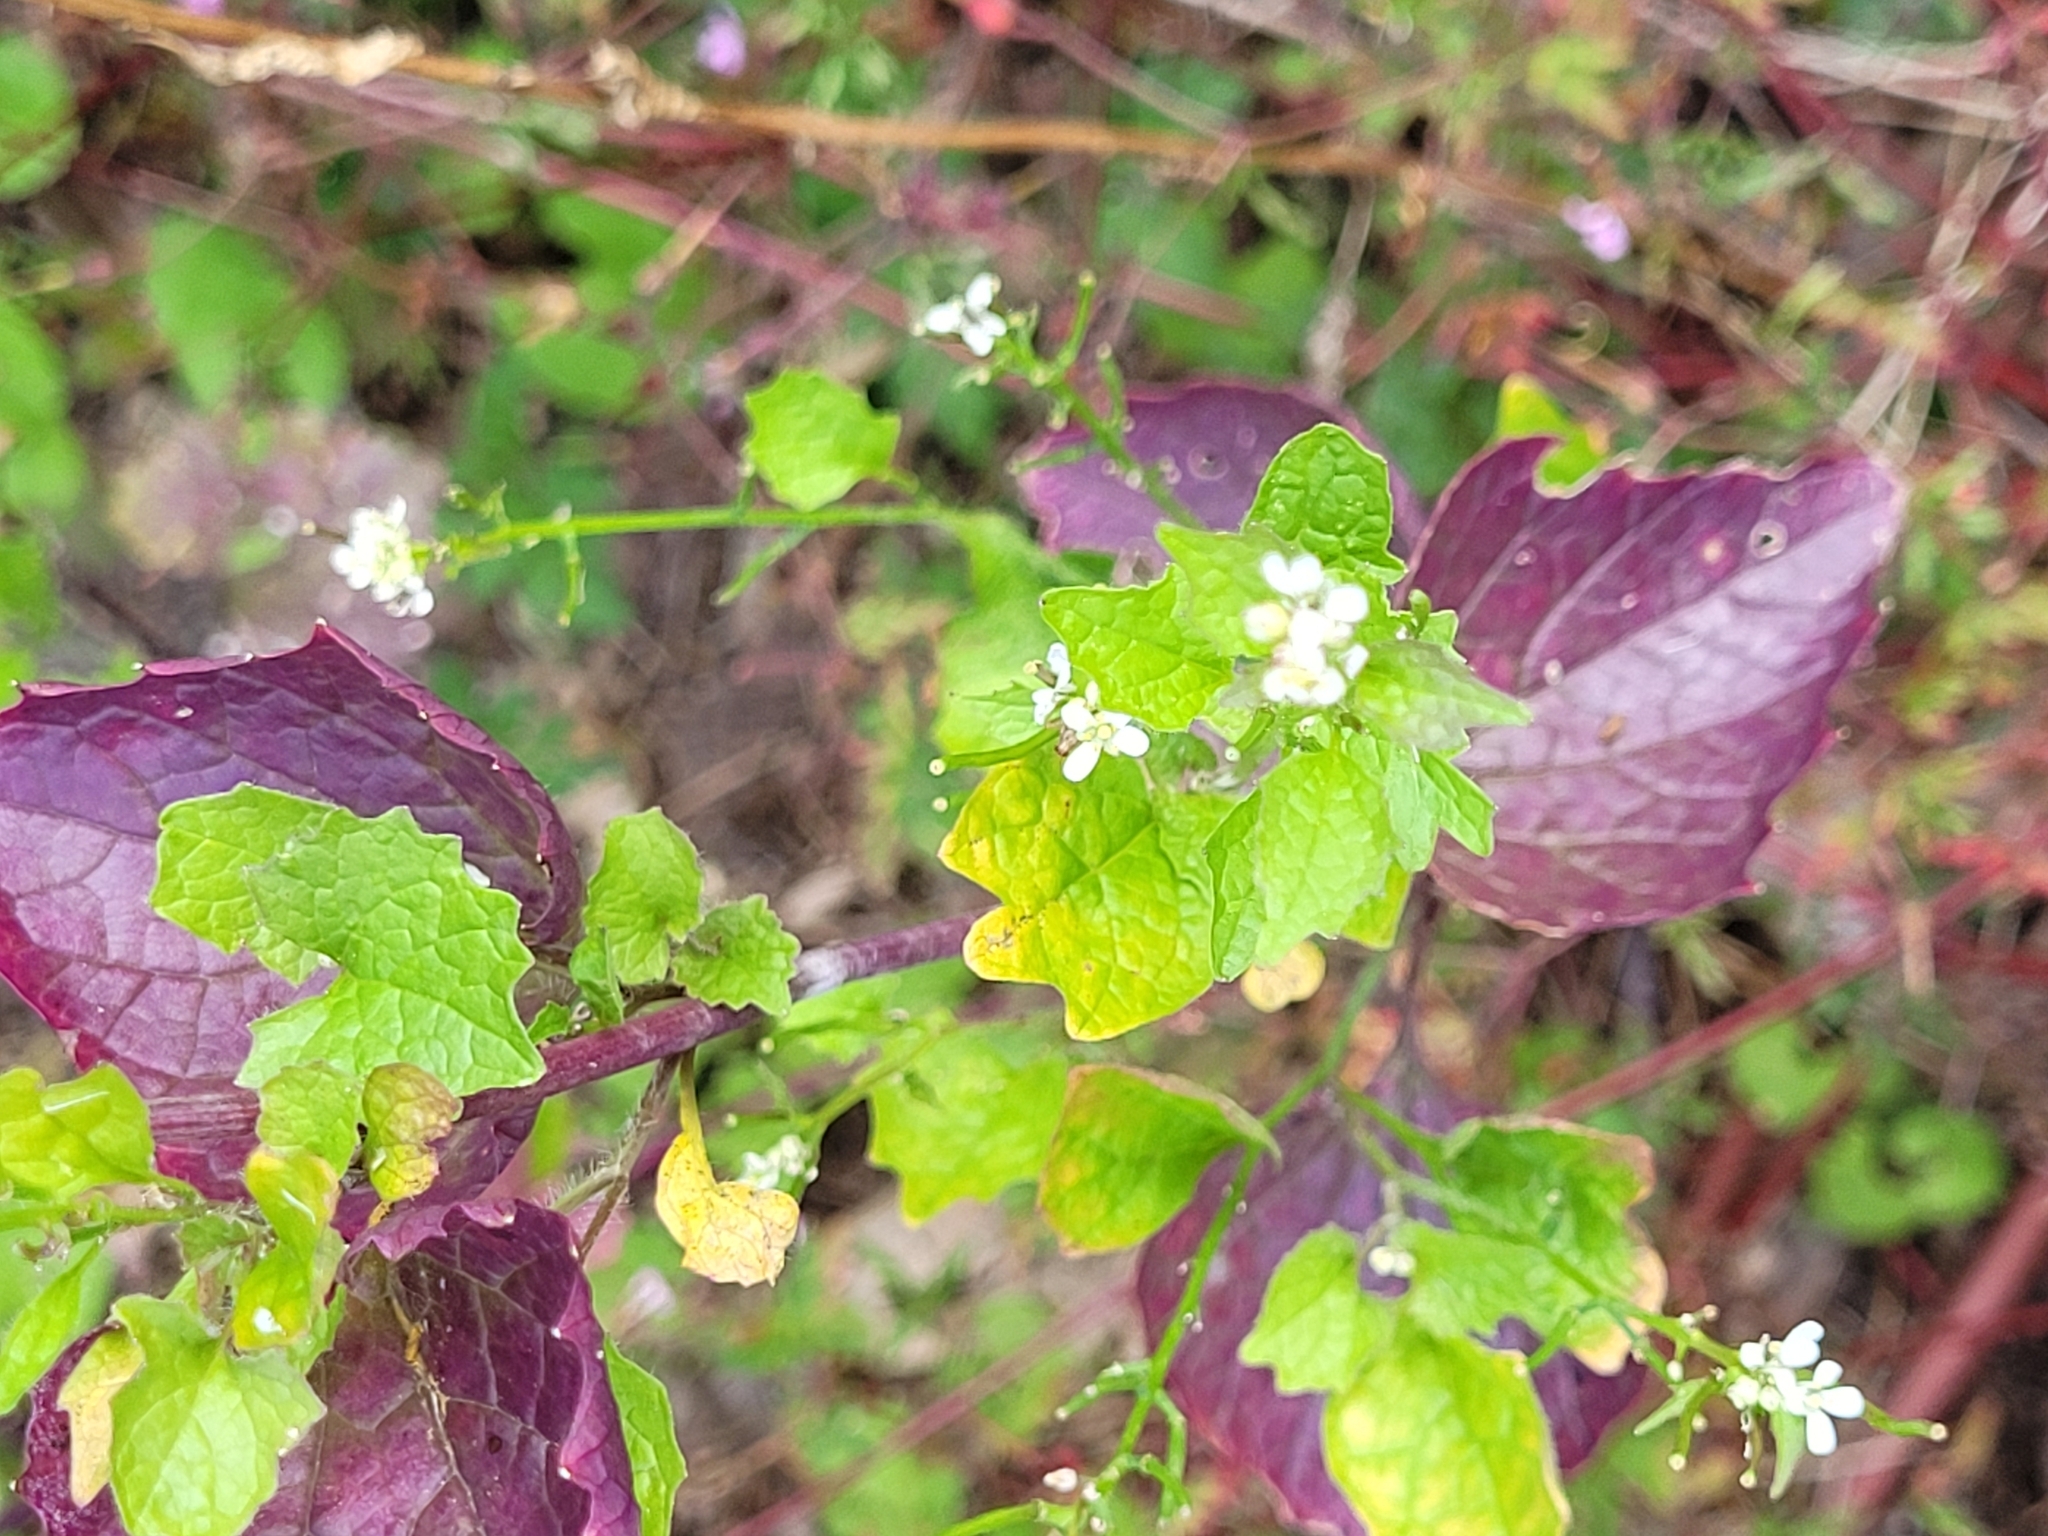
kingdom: Plantae
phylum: Tracheophyta
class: Magnoliopsida
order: Brassicales
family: Brassicaceae
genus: Alliaria
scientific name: Alliaria petiolata
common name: Garlic mustard
